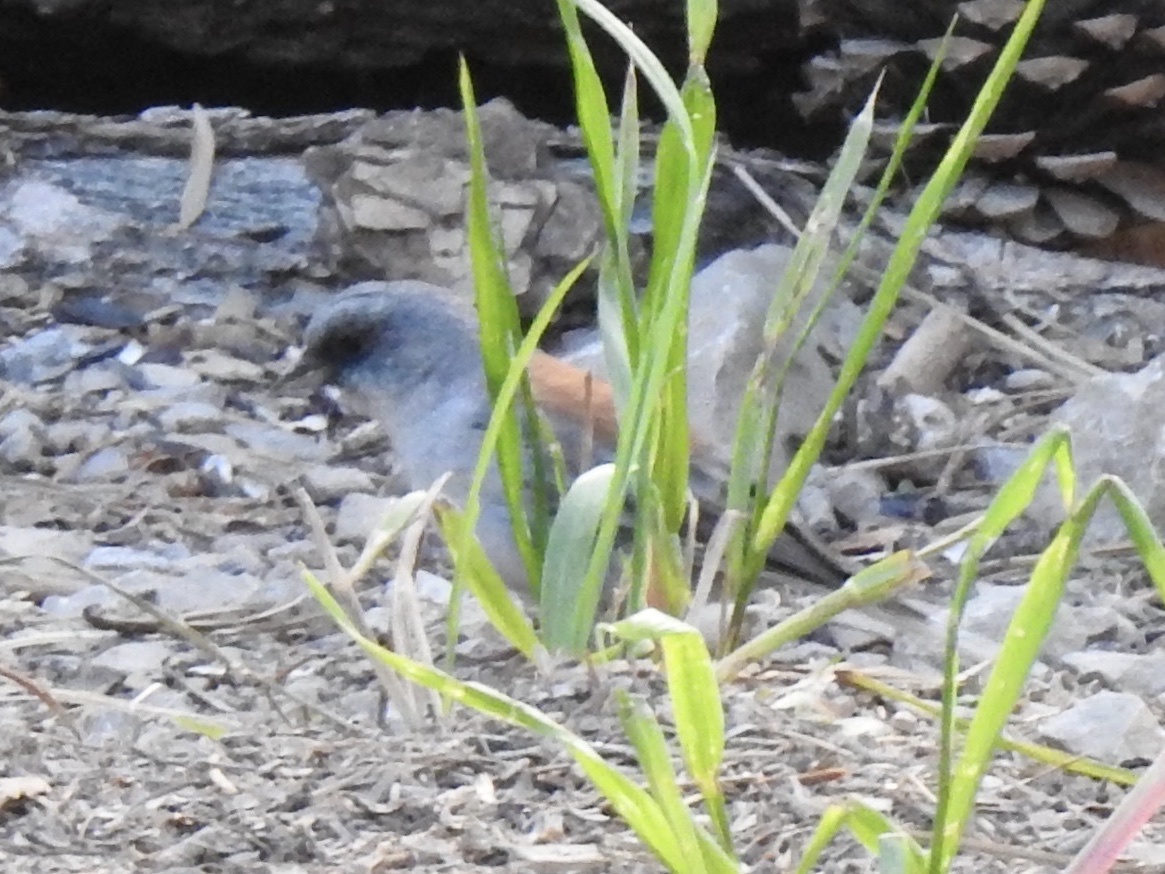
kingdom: Animalia
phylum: Chordata
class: Aves
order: Passeriformes
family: Passerellidae
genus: Junco
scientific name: Junco hyemalis
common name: Dark-eyed junco
